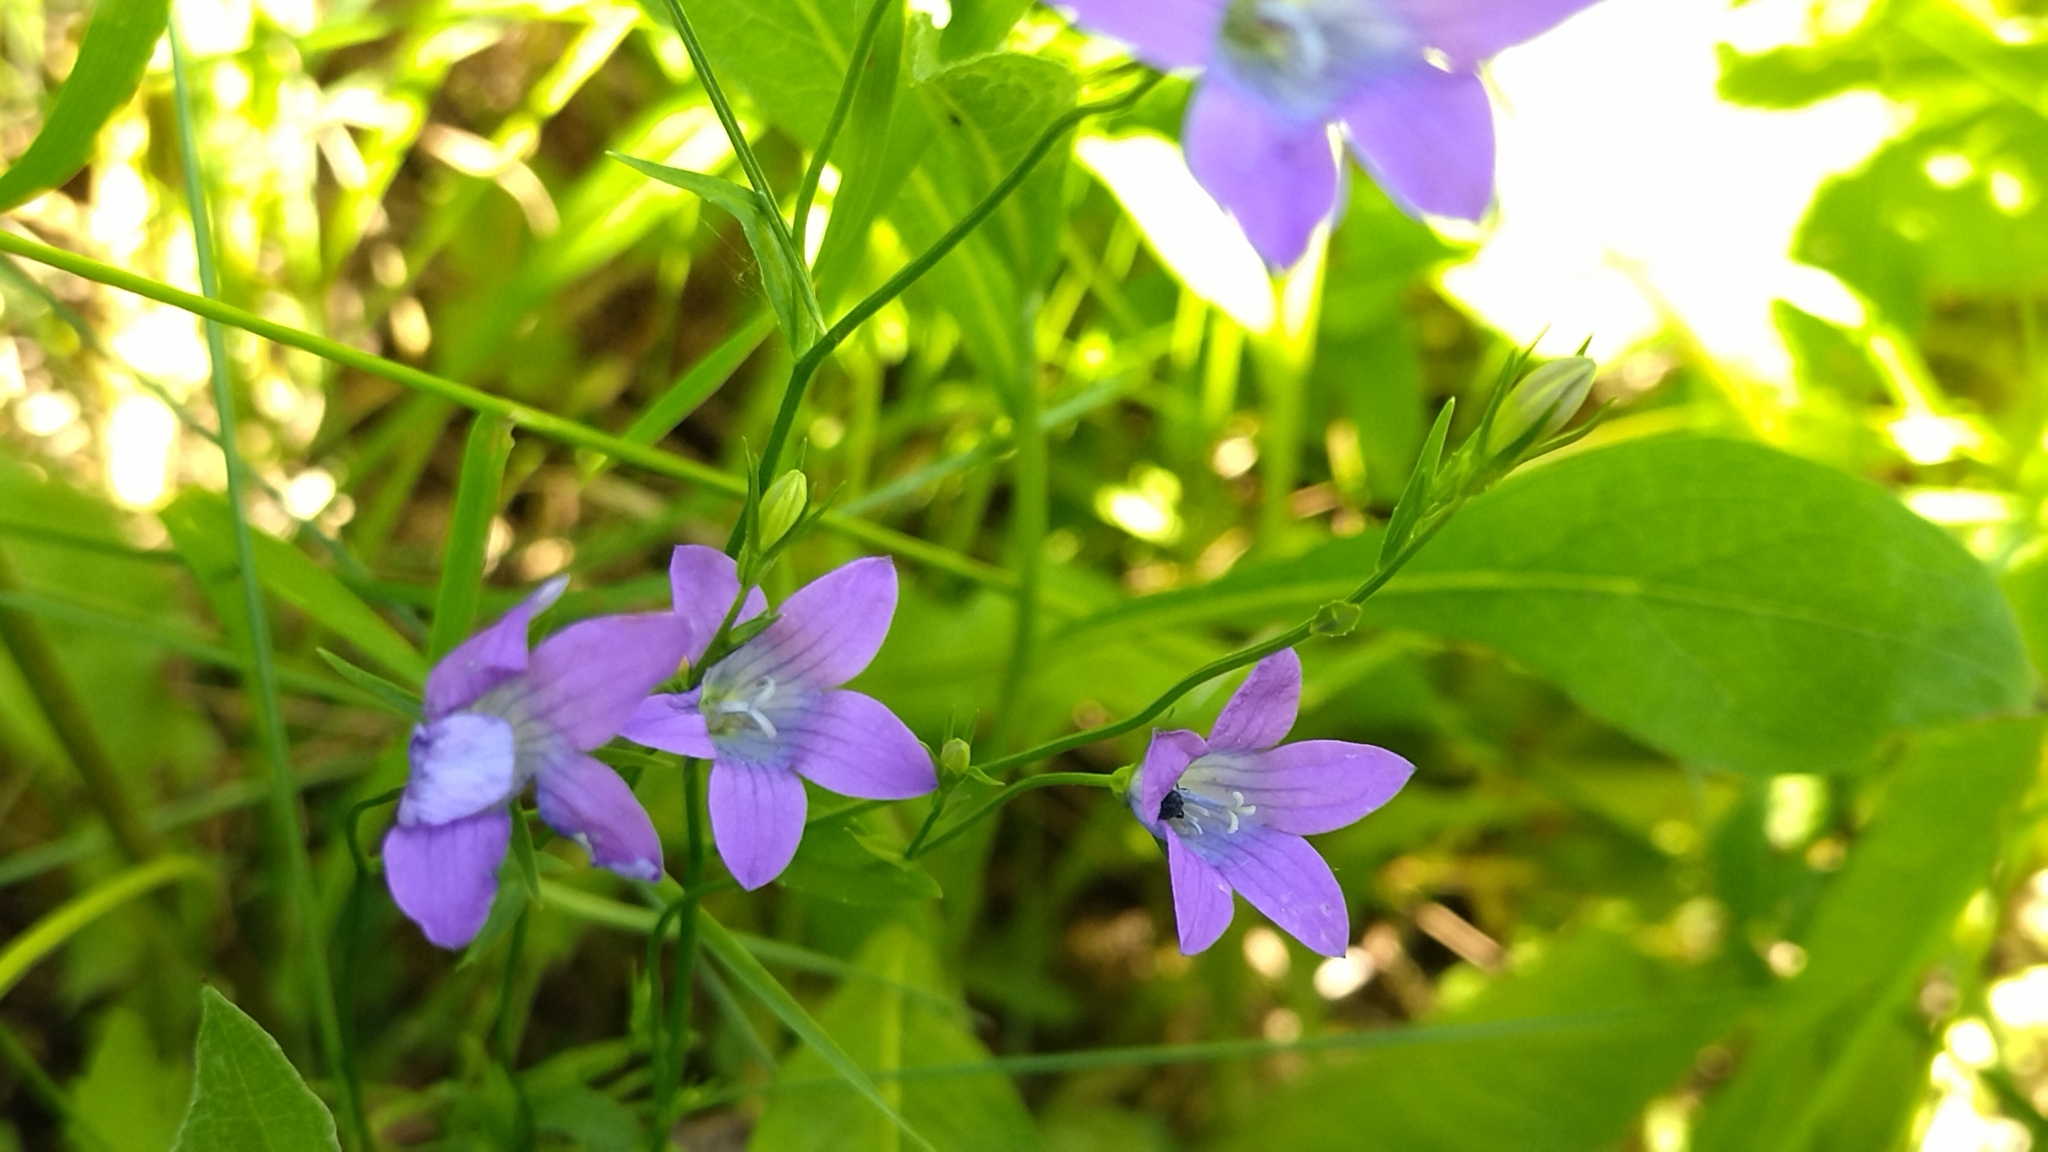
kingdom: Plantae
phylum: Tracheophyta
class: Magnoliopsida
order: Asterales
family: Campanulaceae
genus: Campanula
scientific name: Campanula patula
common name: Spreading bellflower
